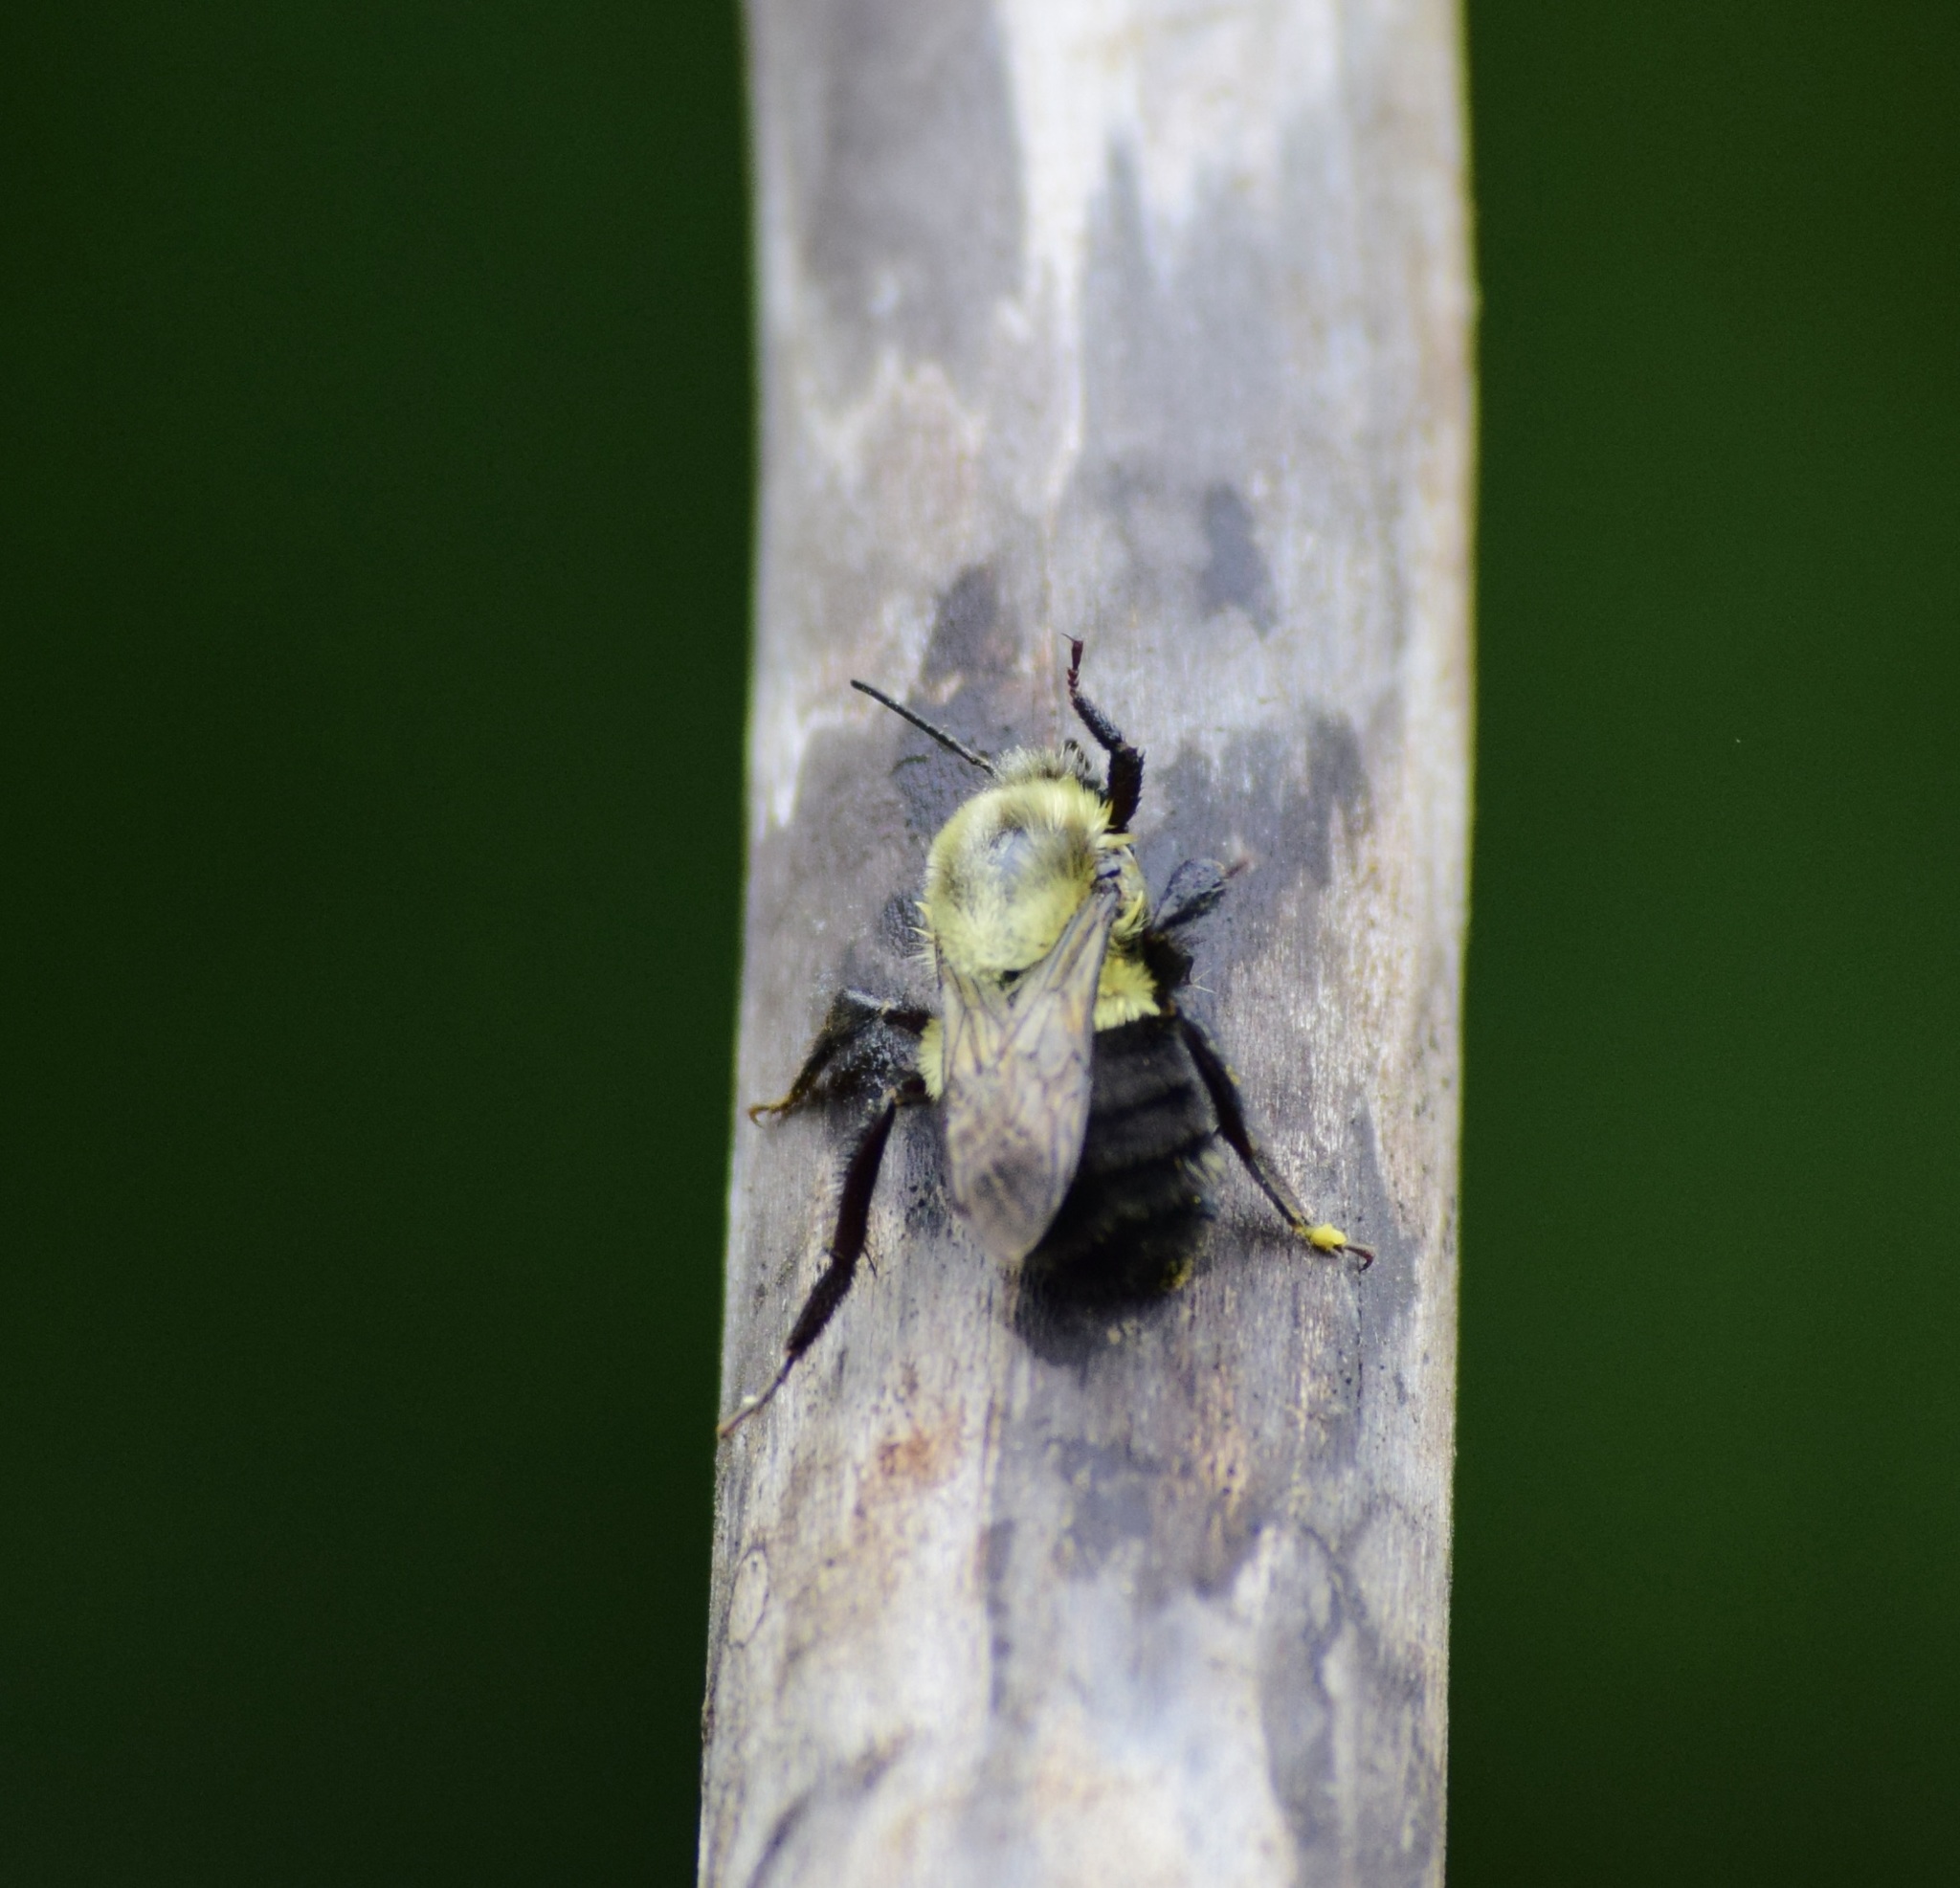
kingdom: Animalia
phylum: Arthropoda
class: Insecta
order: Hymenoptera
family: Apidae
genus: Bombus
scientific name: Bombus impatiens
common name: Common eastern bumble bee
